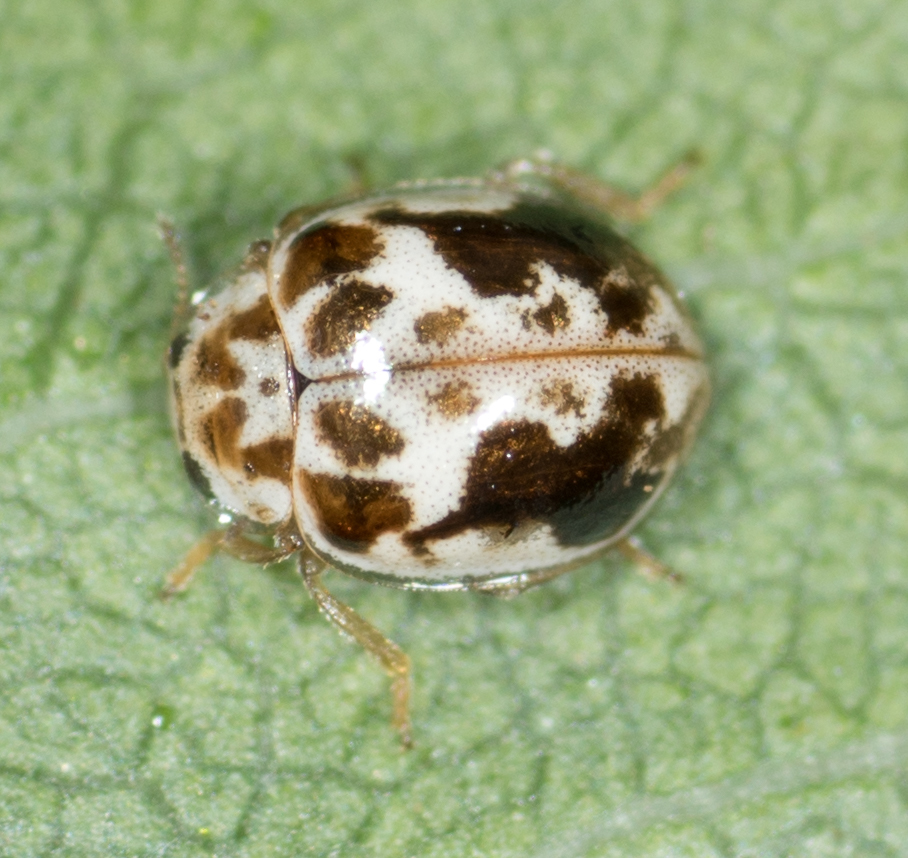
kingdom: Animalia
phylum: Arthropoda
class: Insecta
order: Coleoptera
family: Coccinellidae
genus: Psyllobora
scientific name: Psyllobora renifer
